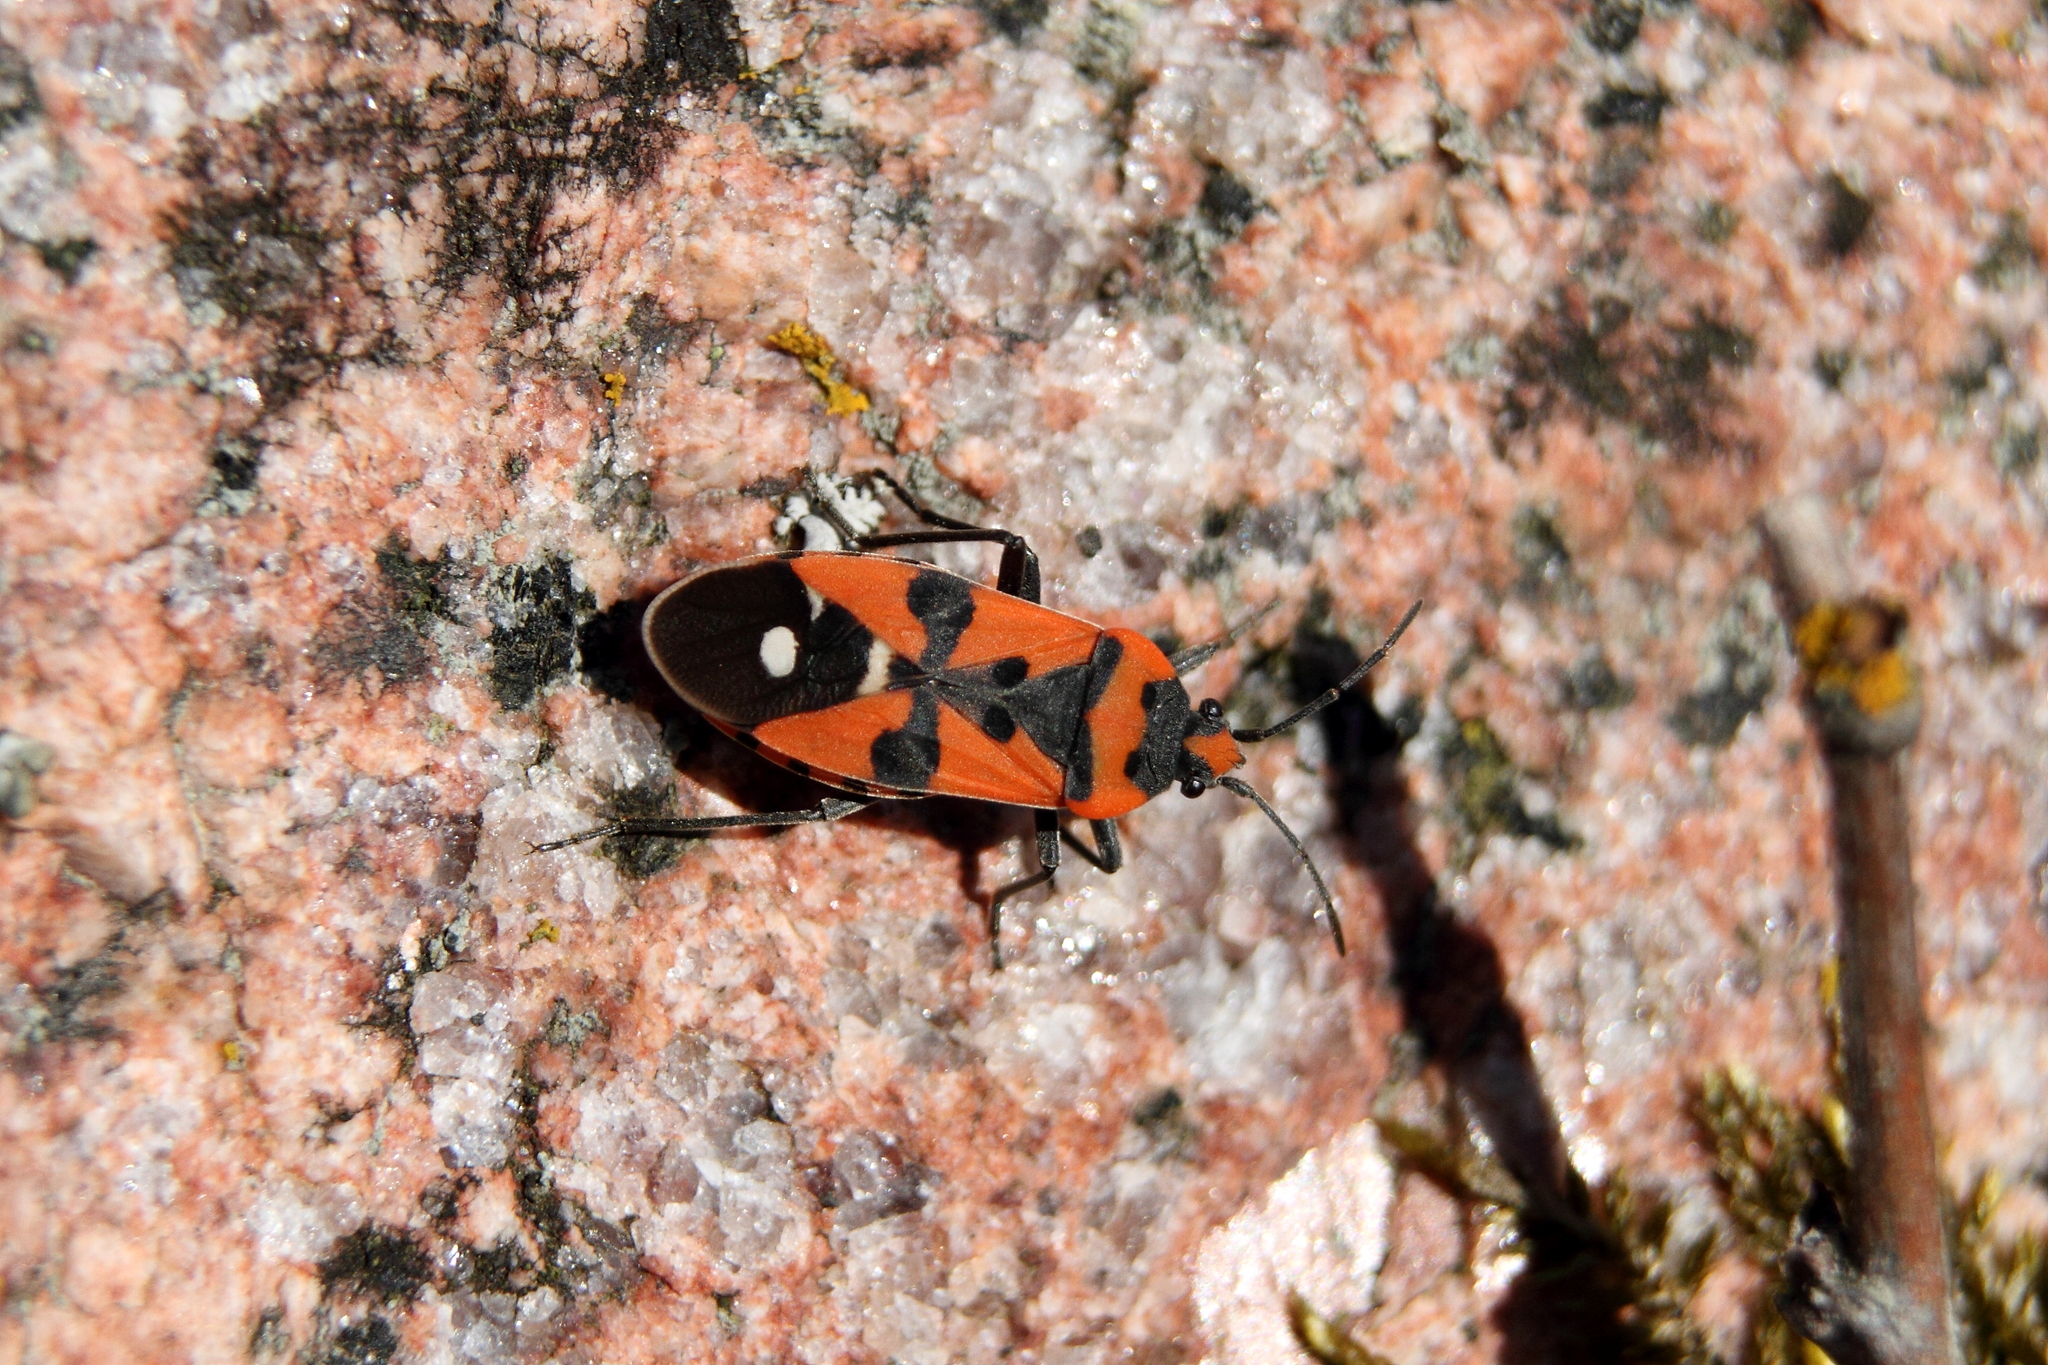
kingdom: Animalia
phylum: Arthropoda
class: Insecta
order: Hemiptera
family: Lygaeidae
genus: Lygaeus
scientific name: Lygaeus equestris
